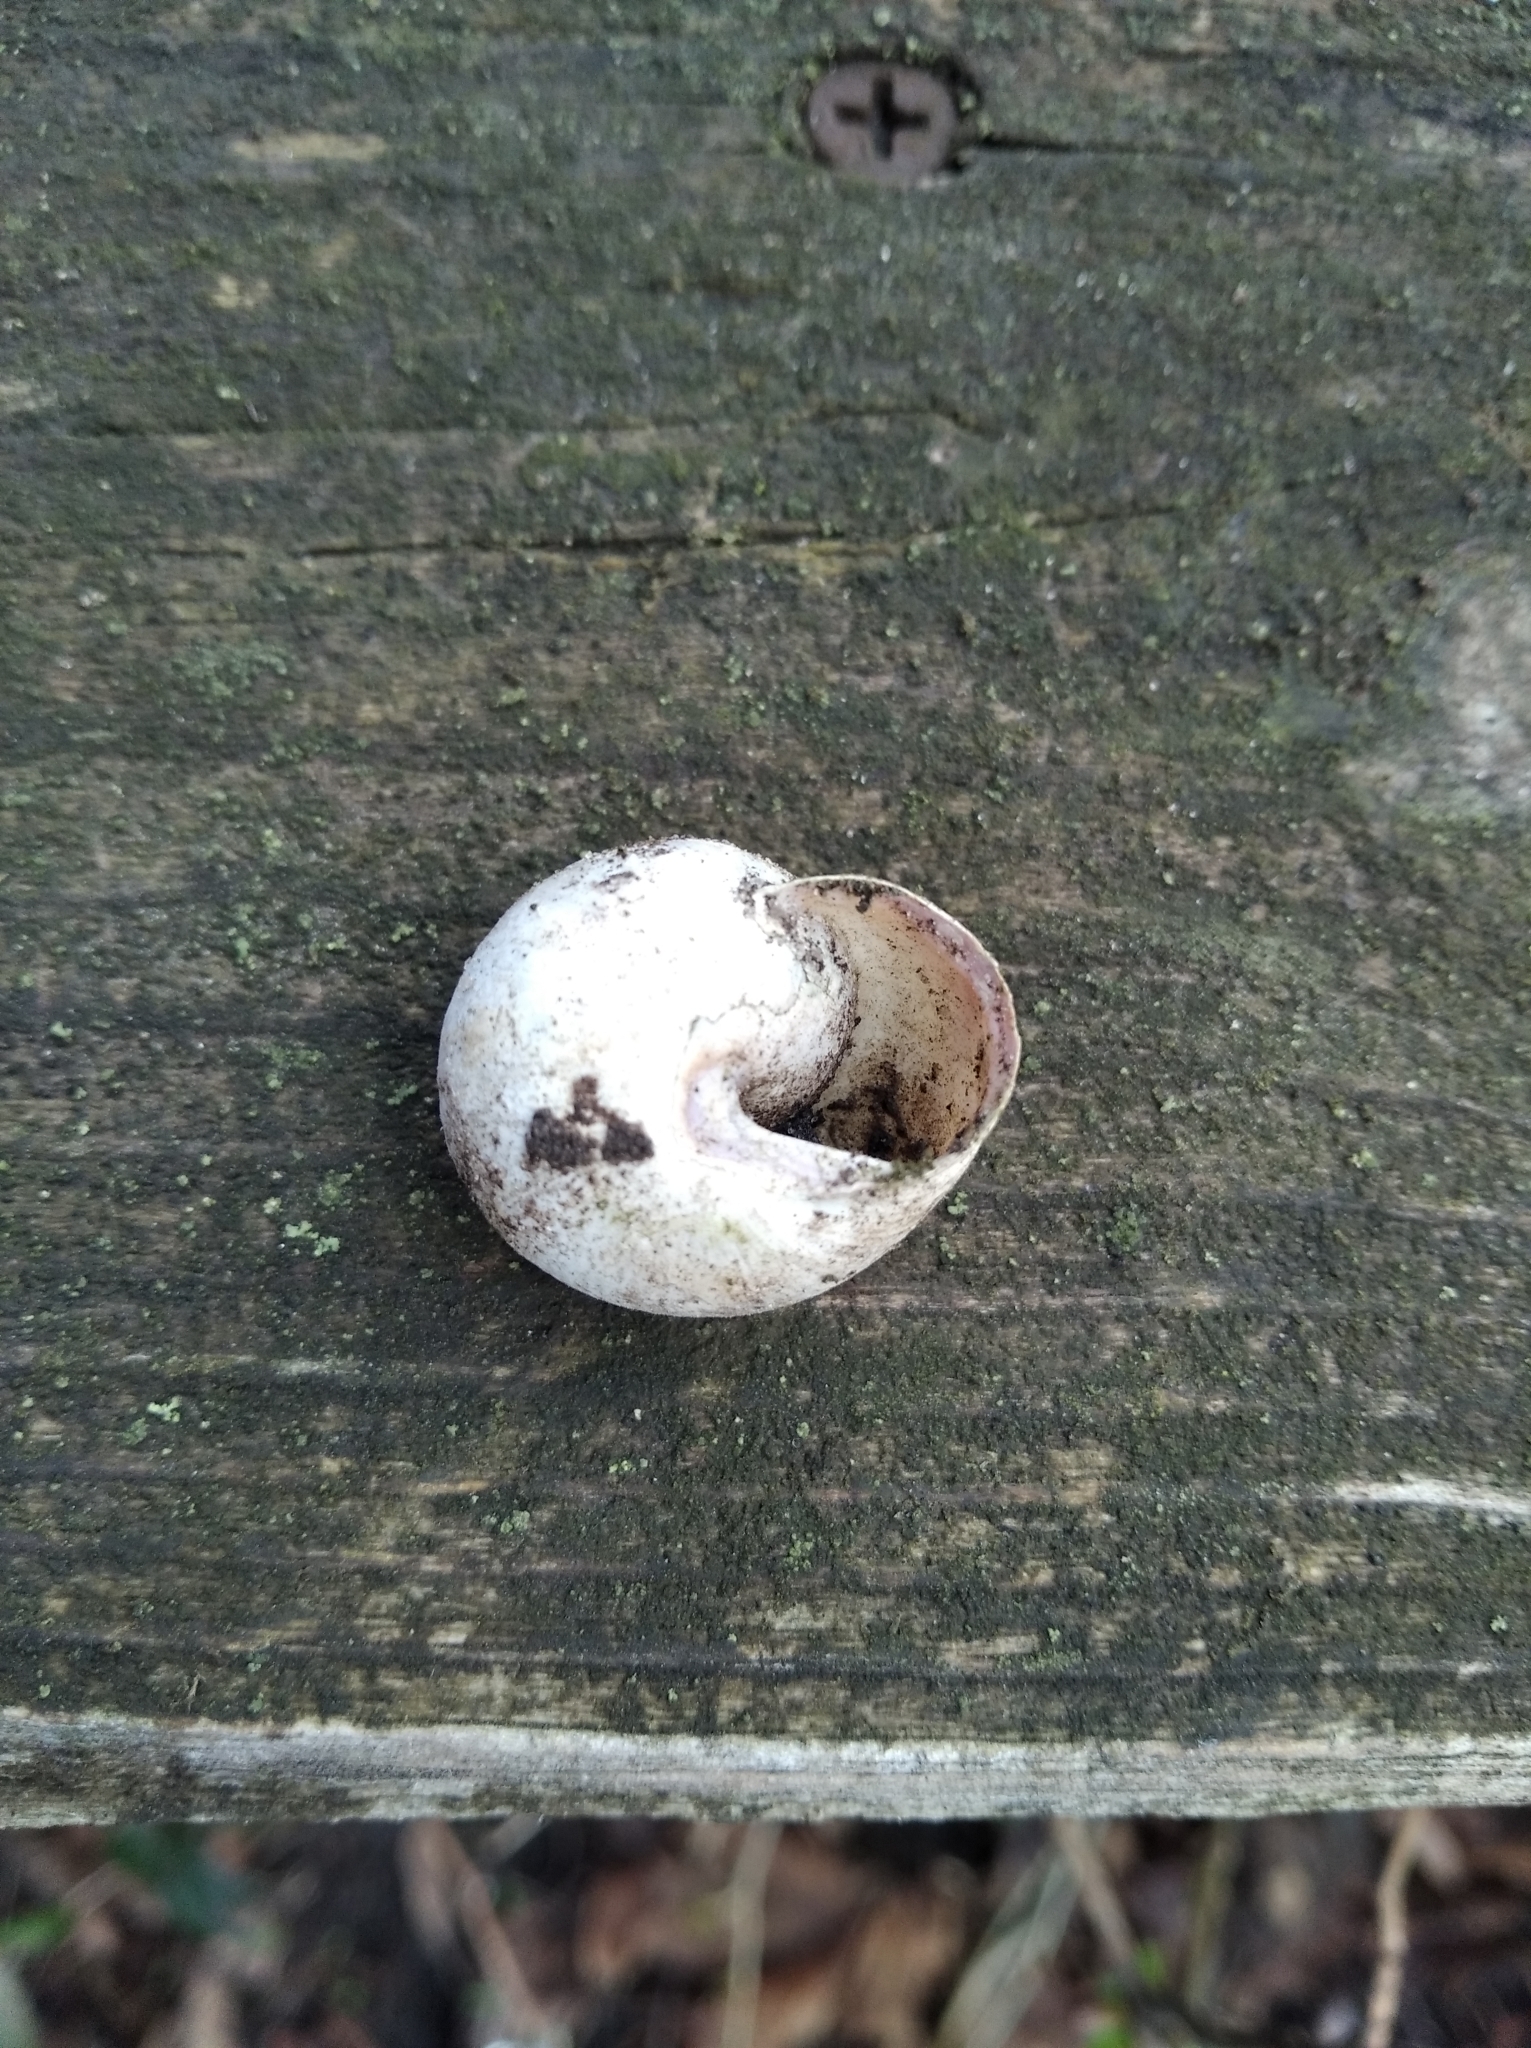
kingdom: Animalia
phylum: Mollusca
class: Gastropoda
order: Stylommatophora
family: Helicidae
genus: Caucasotachea
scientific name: Caucasotachea vindobonensis
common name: European helicid land snail
